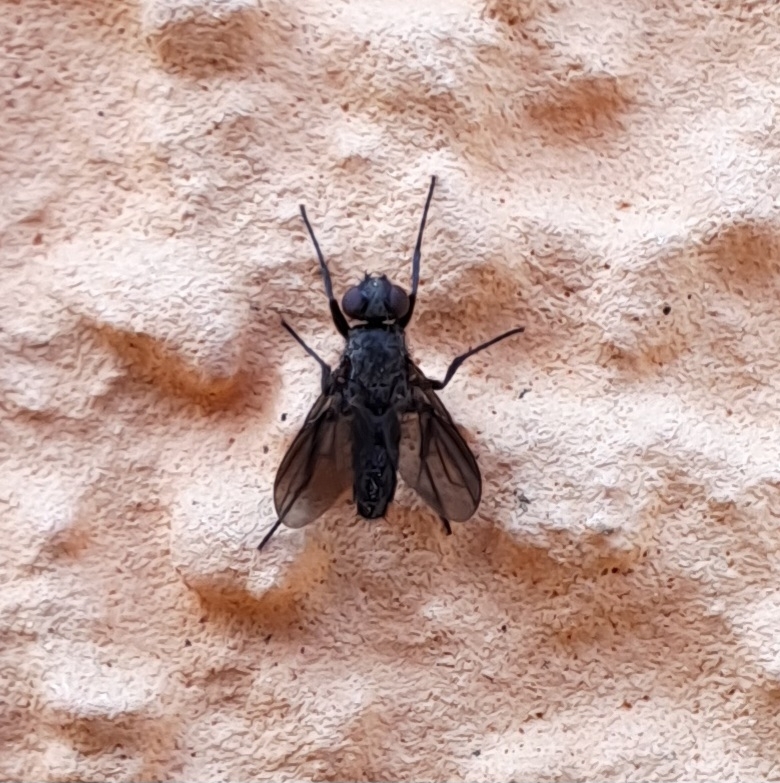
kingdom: Animalia
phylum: Arthropoda
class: Insecta
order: Diptera
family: Calliphoridae
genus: Melanophora
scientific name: Melanophora roralis
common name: Smoky-winged woodlouse-fly
